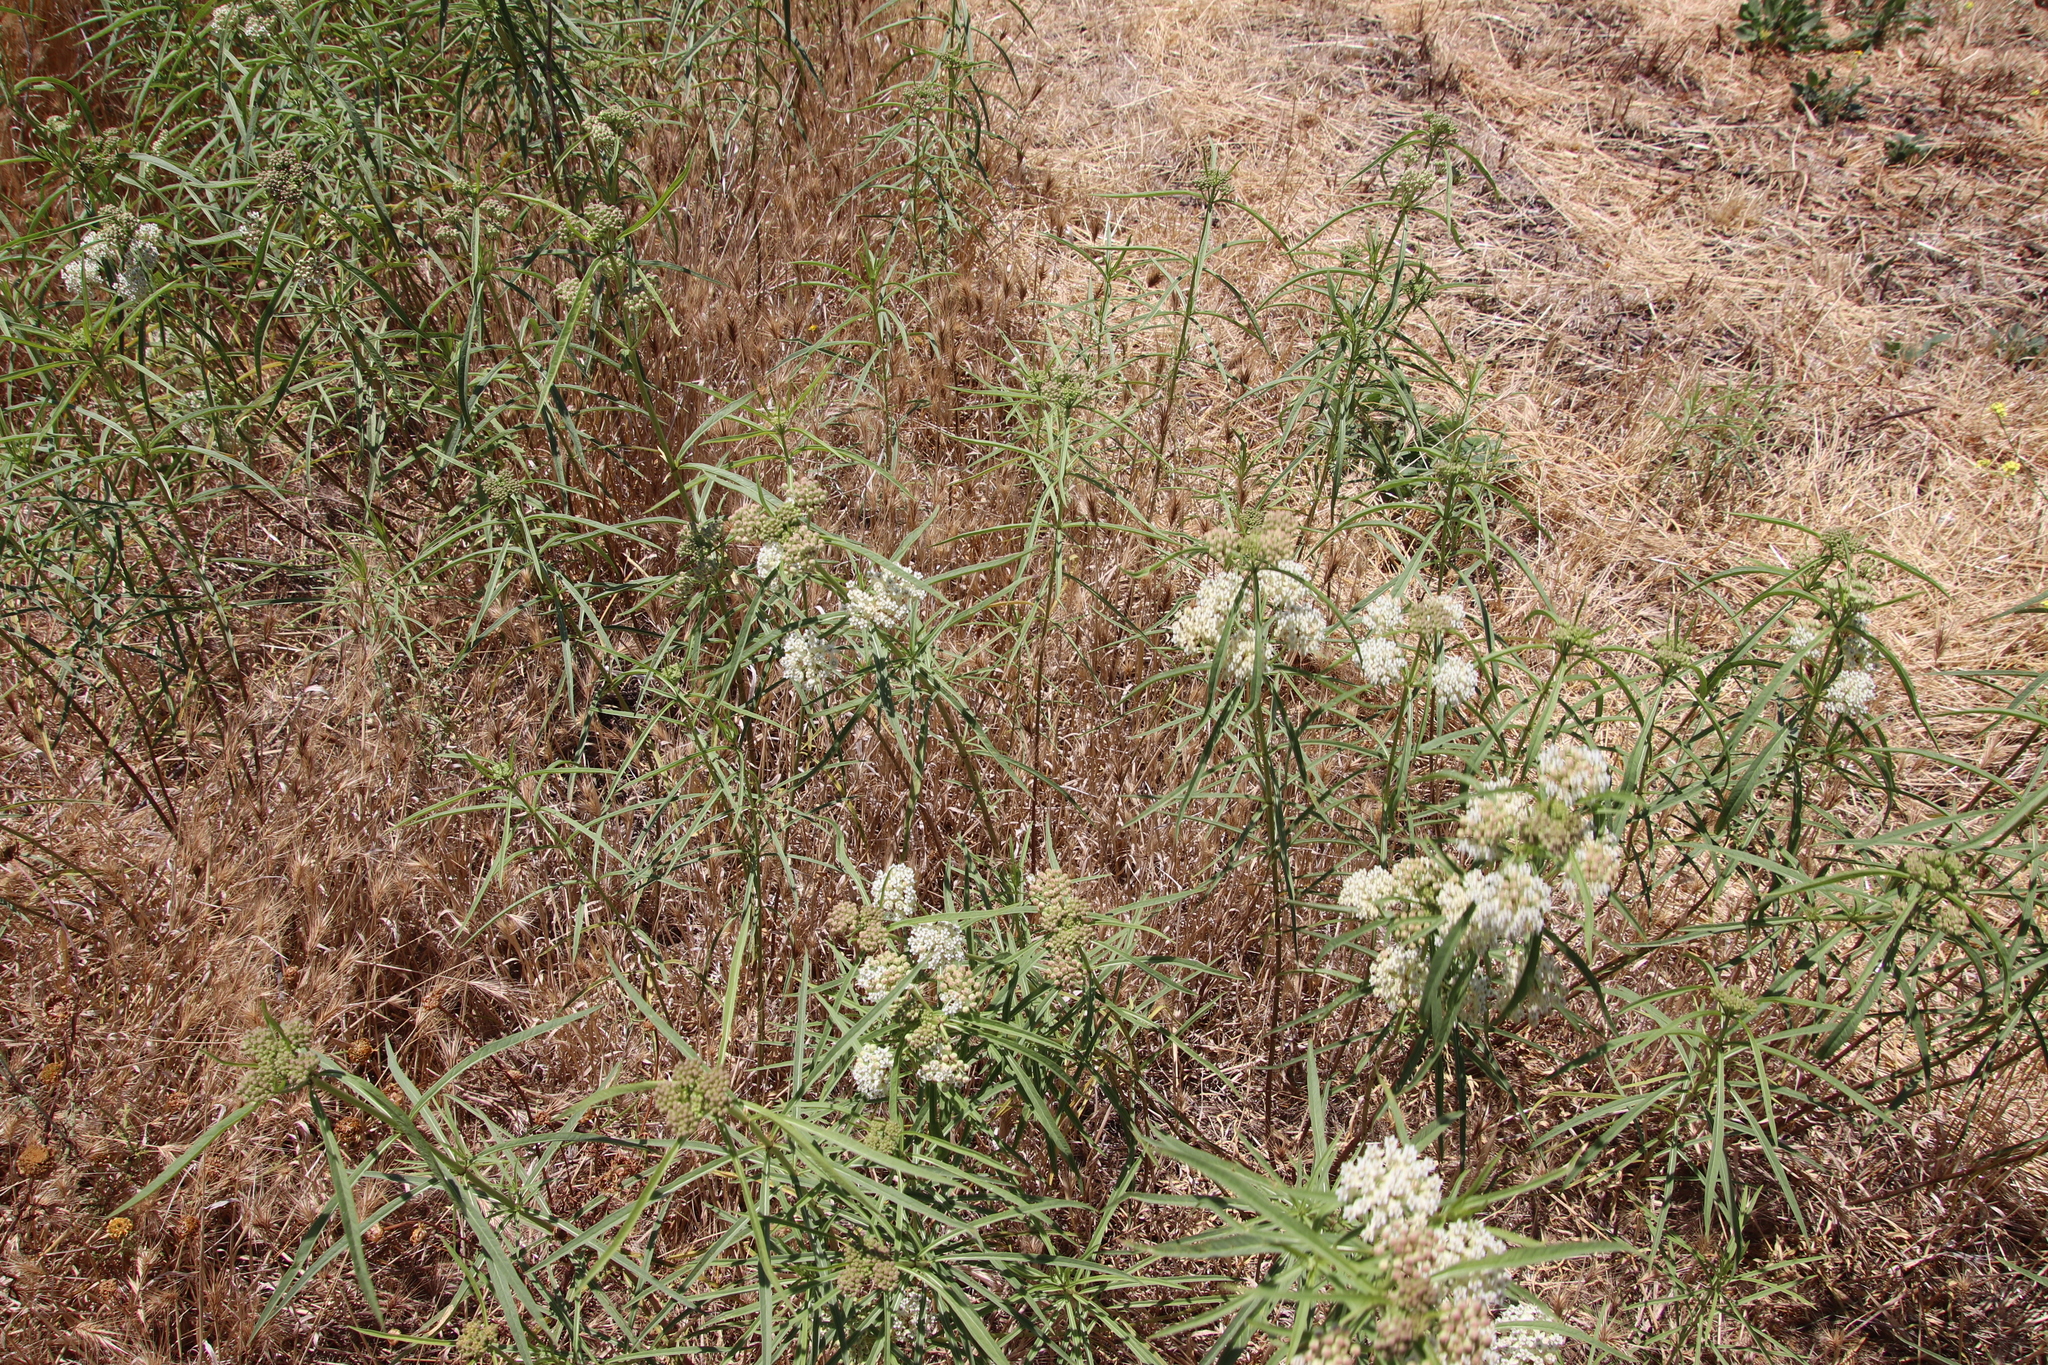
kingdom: Plantae
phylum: Tracheophyta
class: Magnoliopsida
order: Gentianales
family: Apocynaceae
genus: Asclepias
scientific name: Asclepias fascicularis
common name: Mexican milkweed
